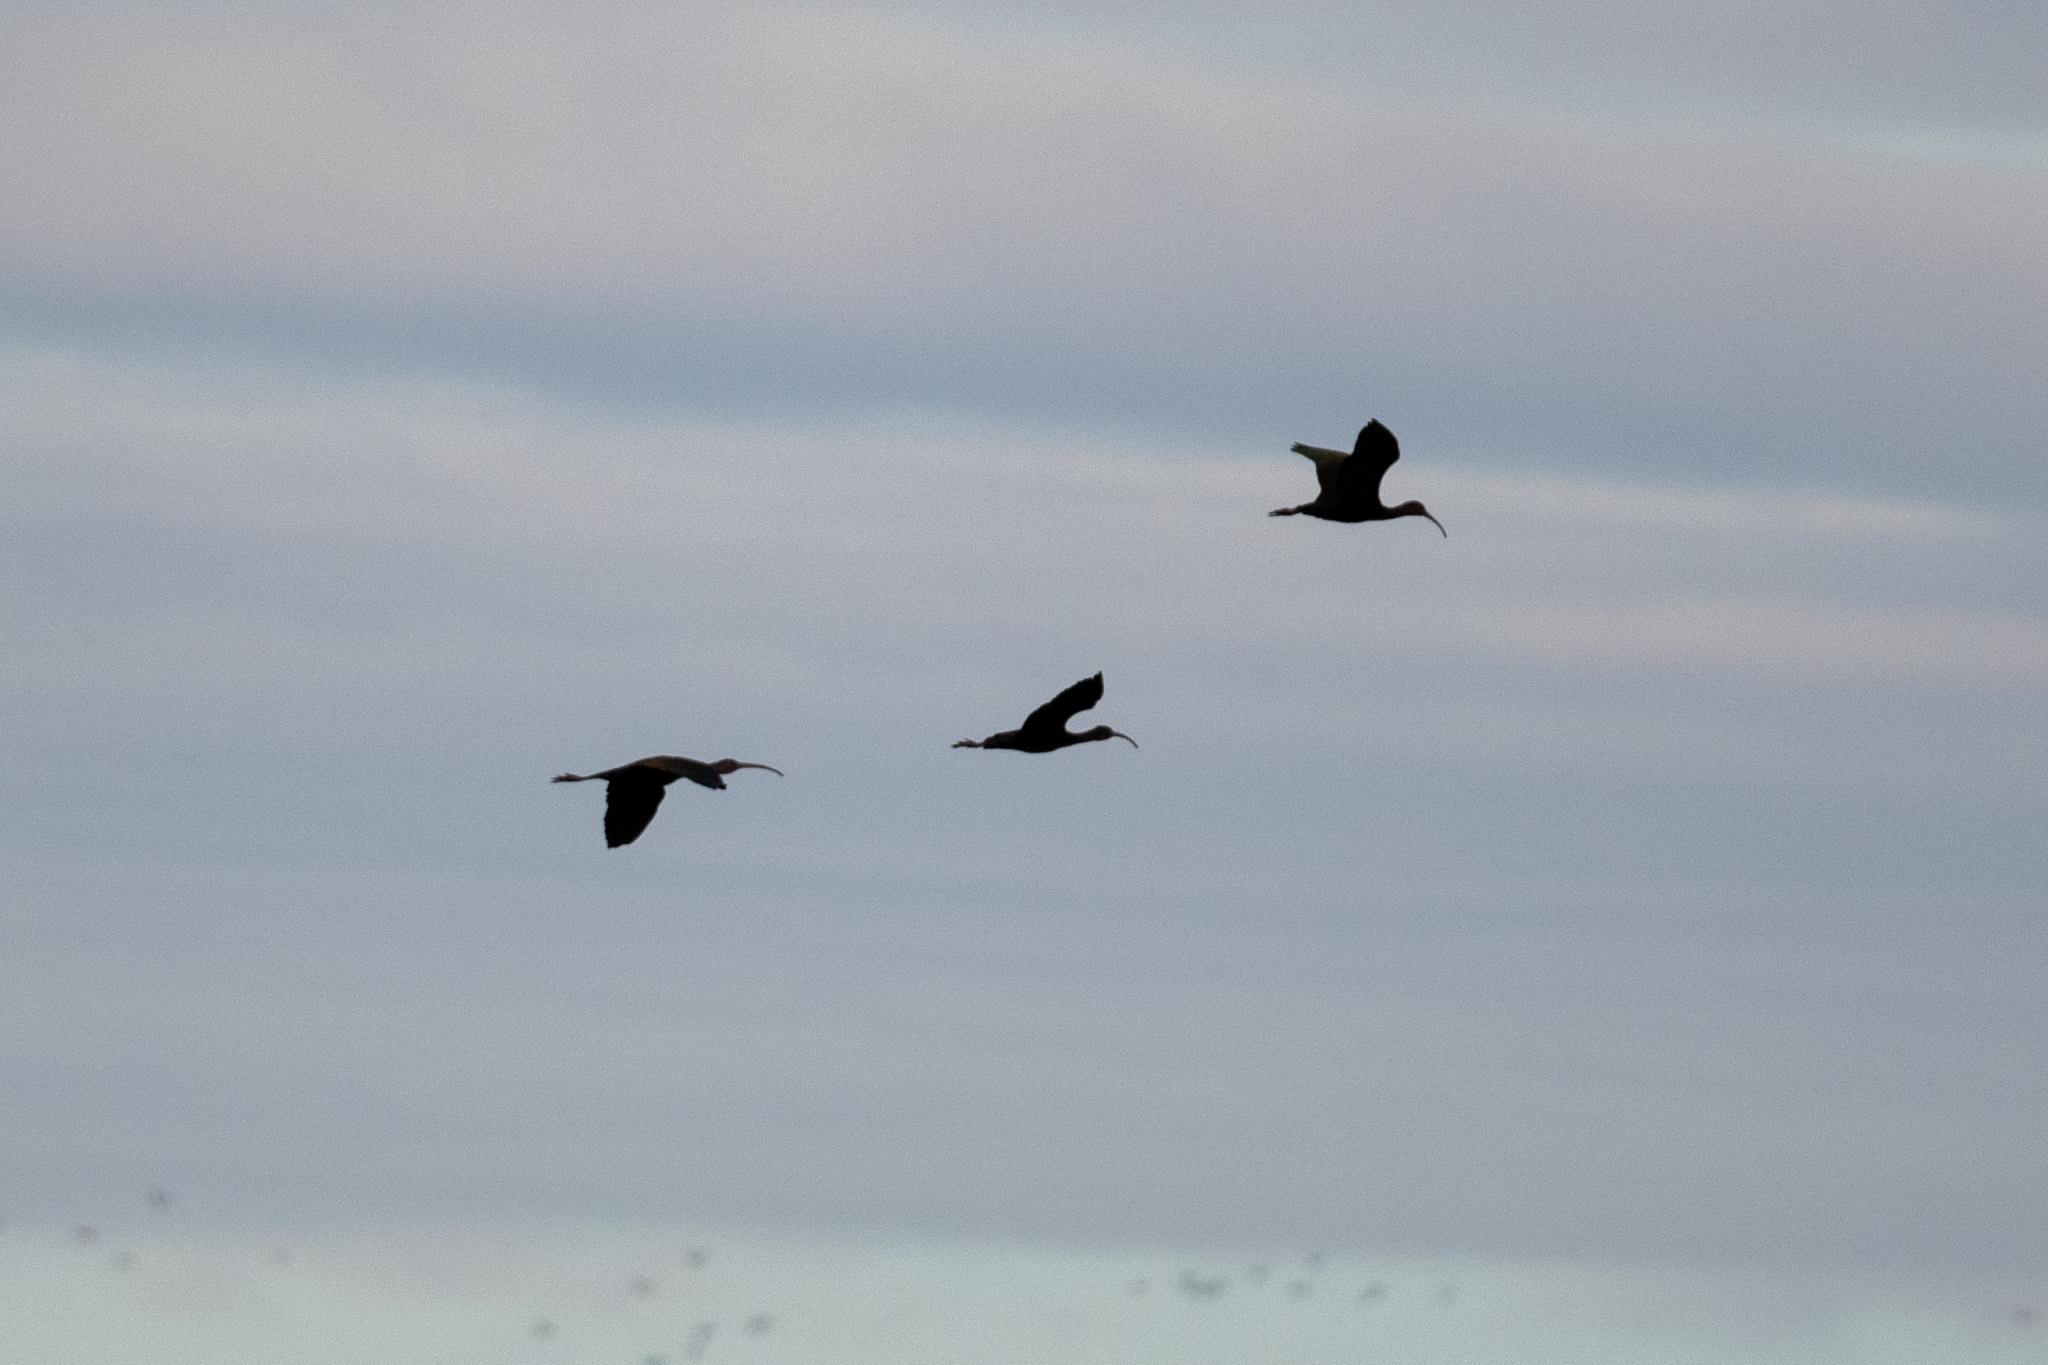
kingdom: Animalia
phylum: Chordata
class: Aves
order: Pelecaniformes
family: Threskiornithidae
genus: Plegadis
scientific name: Plegadis chihi
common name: White-faced ibis
